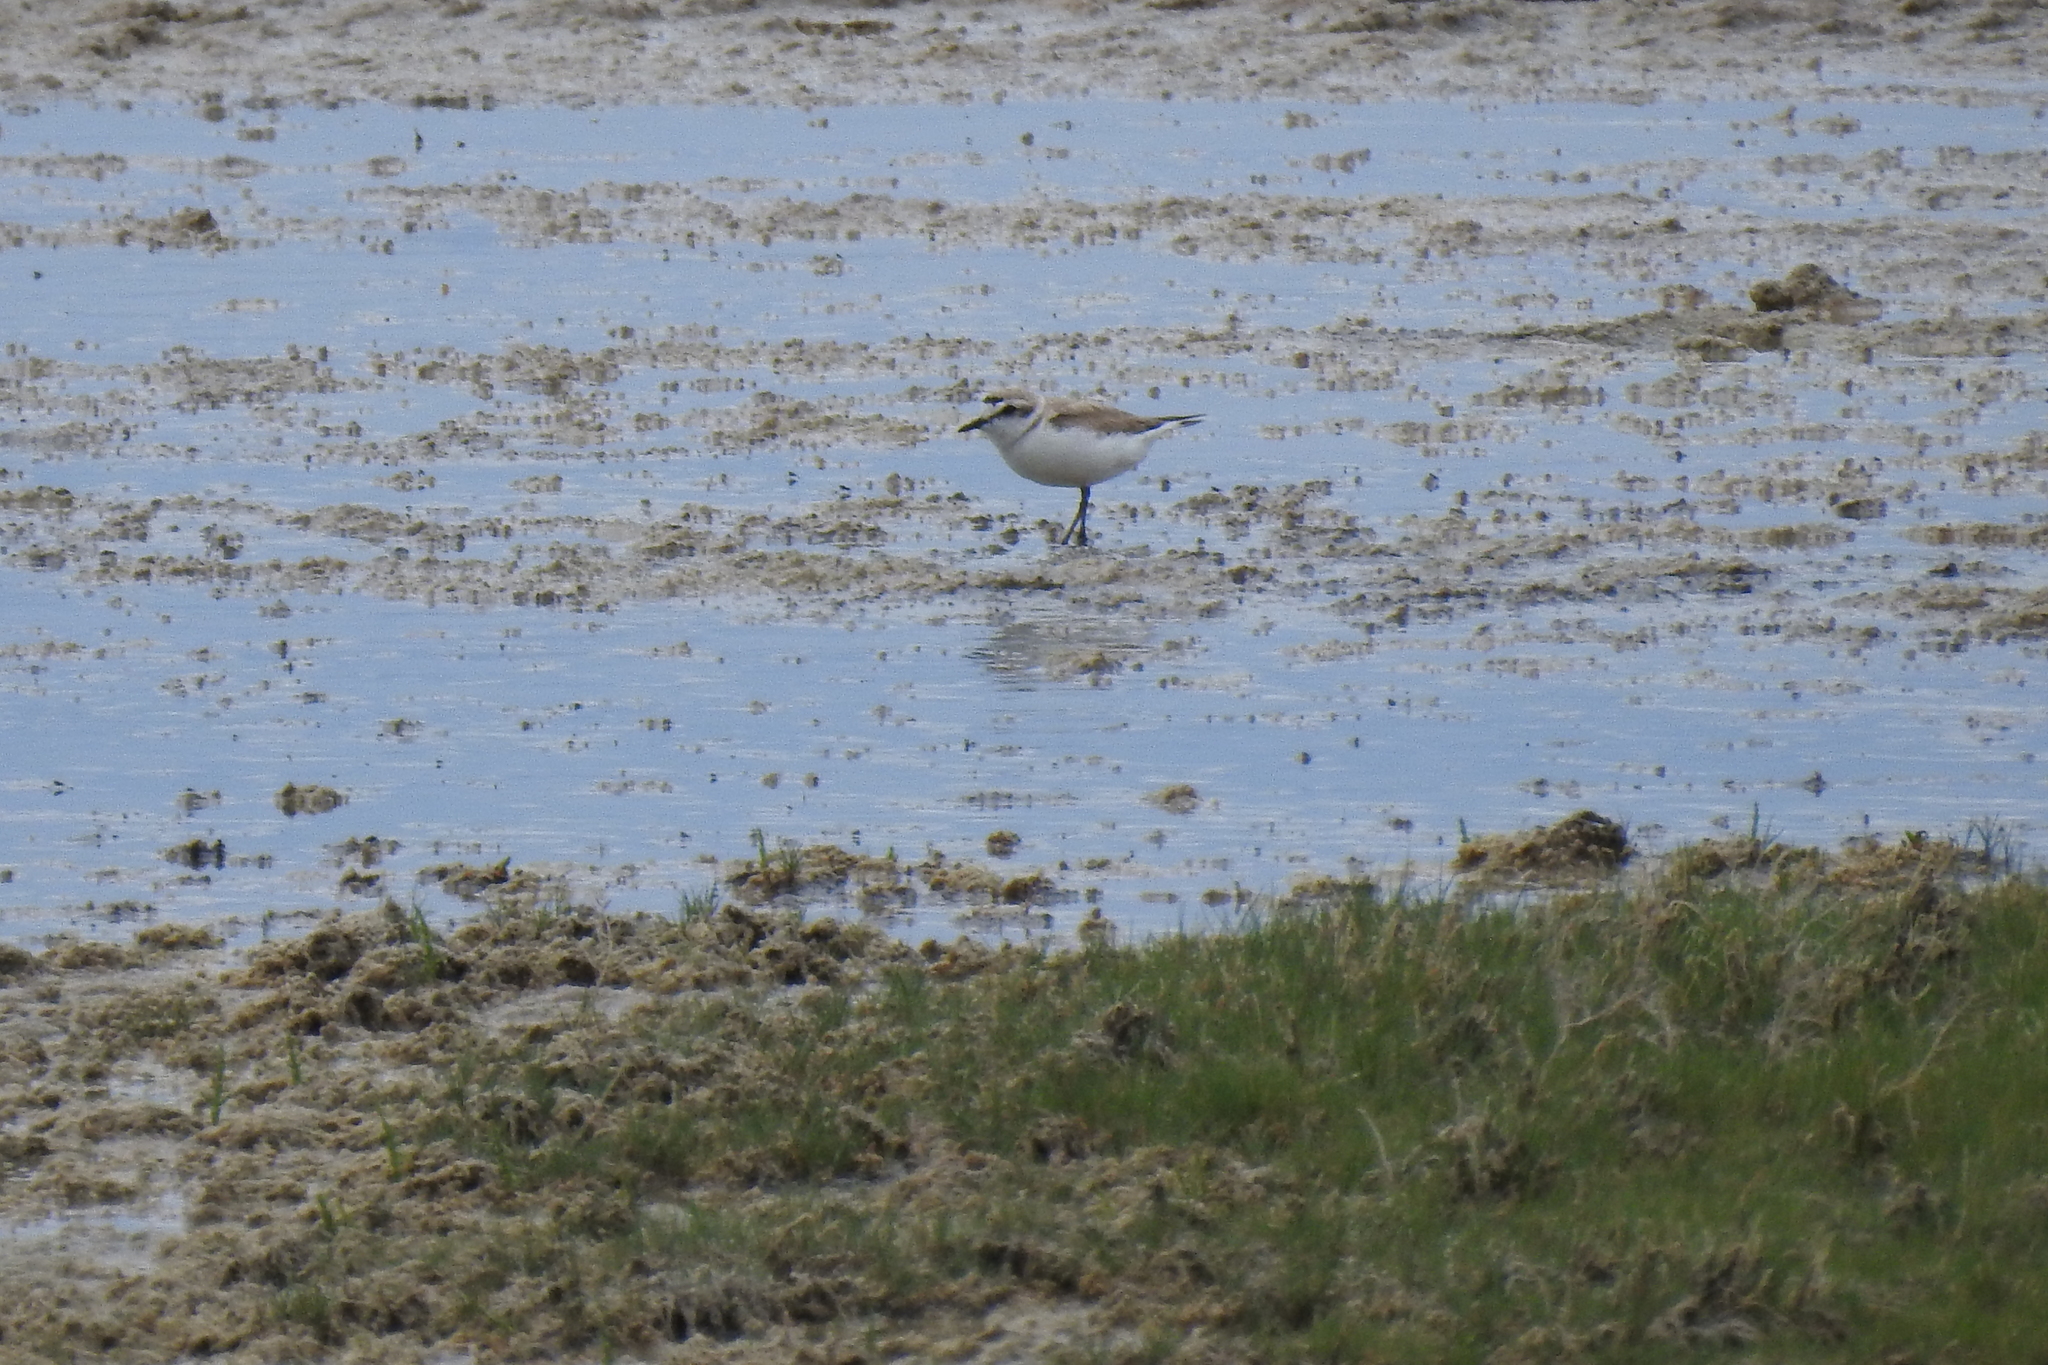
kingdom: Animalia
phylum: Chordata
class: Aves
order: Charadriiformes
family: Charadriidae
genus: Anarhynchus
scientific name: Anarhynchus
